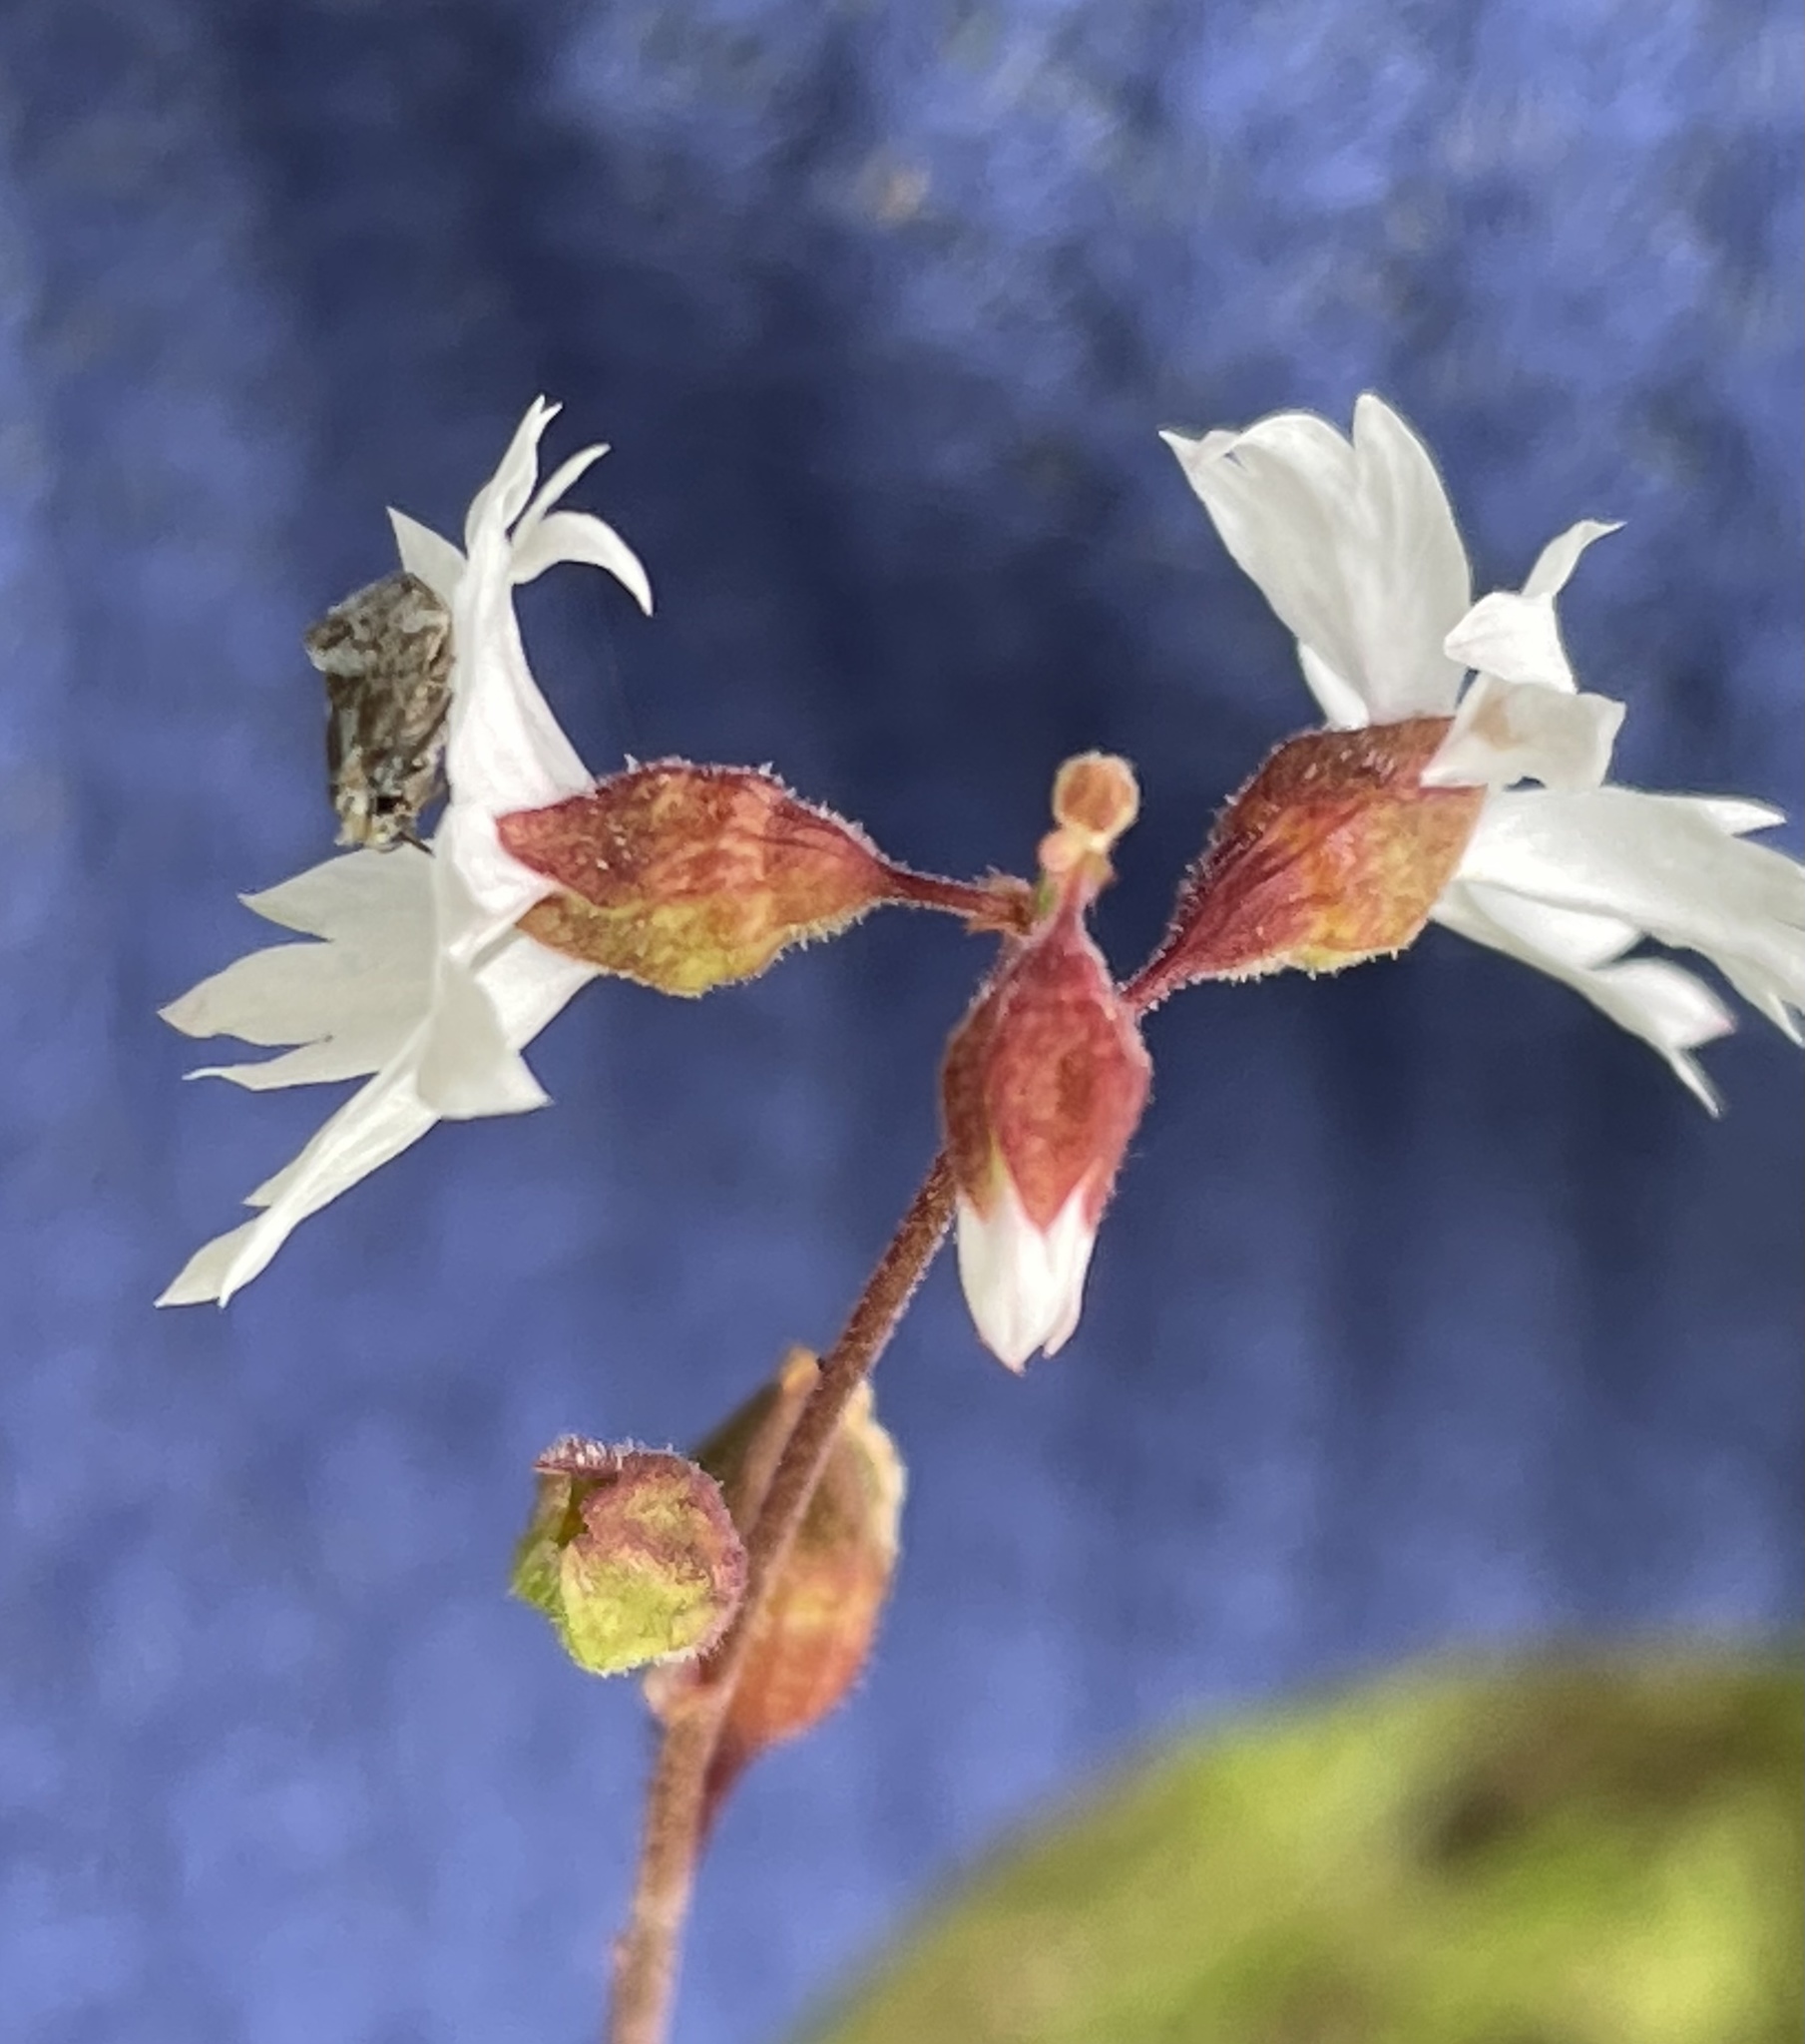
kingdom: Plantae
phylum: Tracheophyta
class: Magnoliopsida
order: Saxifragales
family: Saxifragaceae
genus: Lithophragma
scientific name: Lithophragma affine
